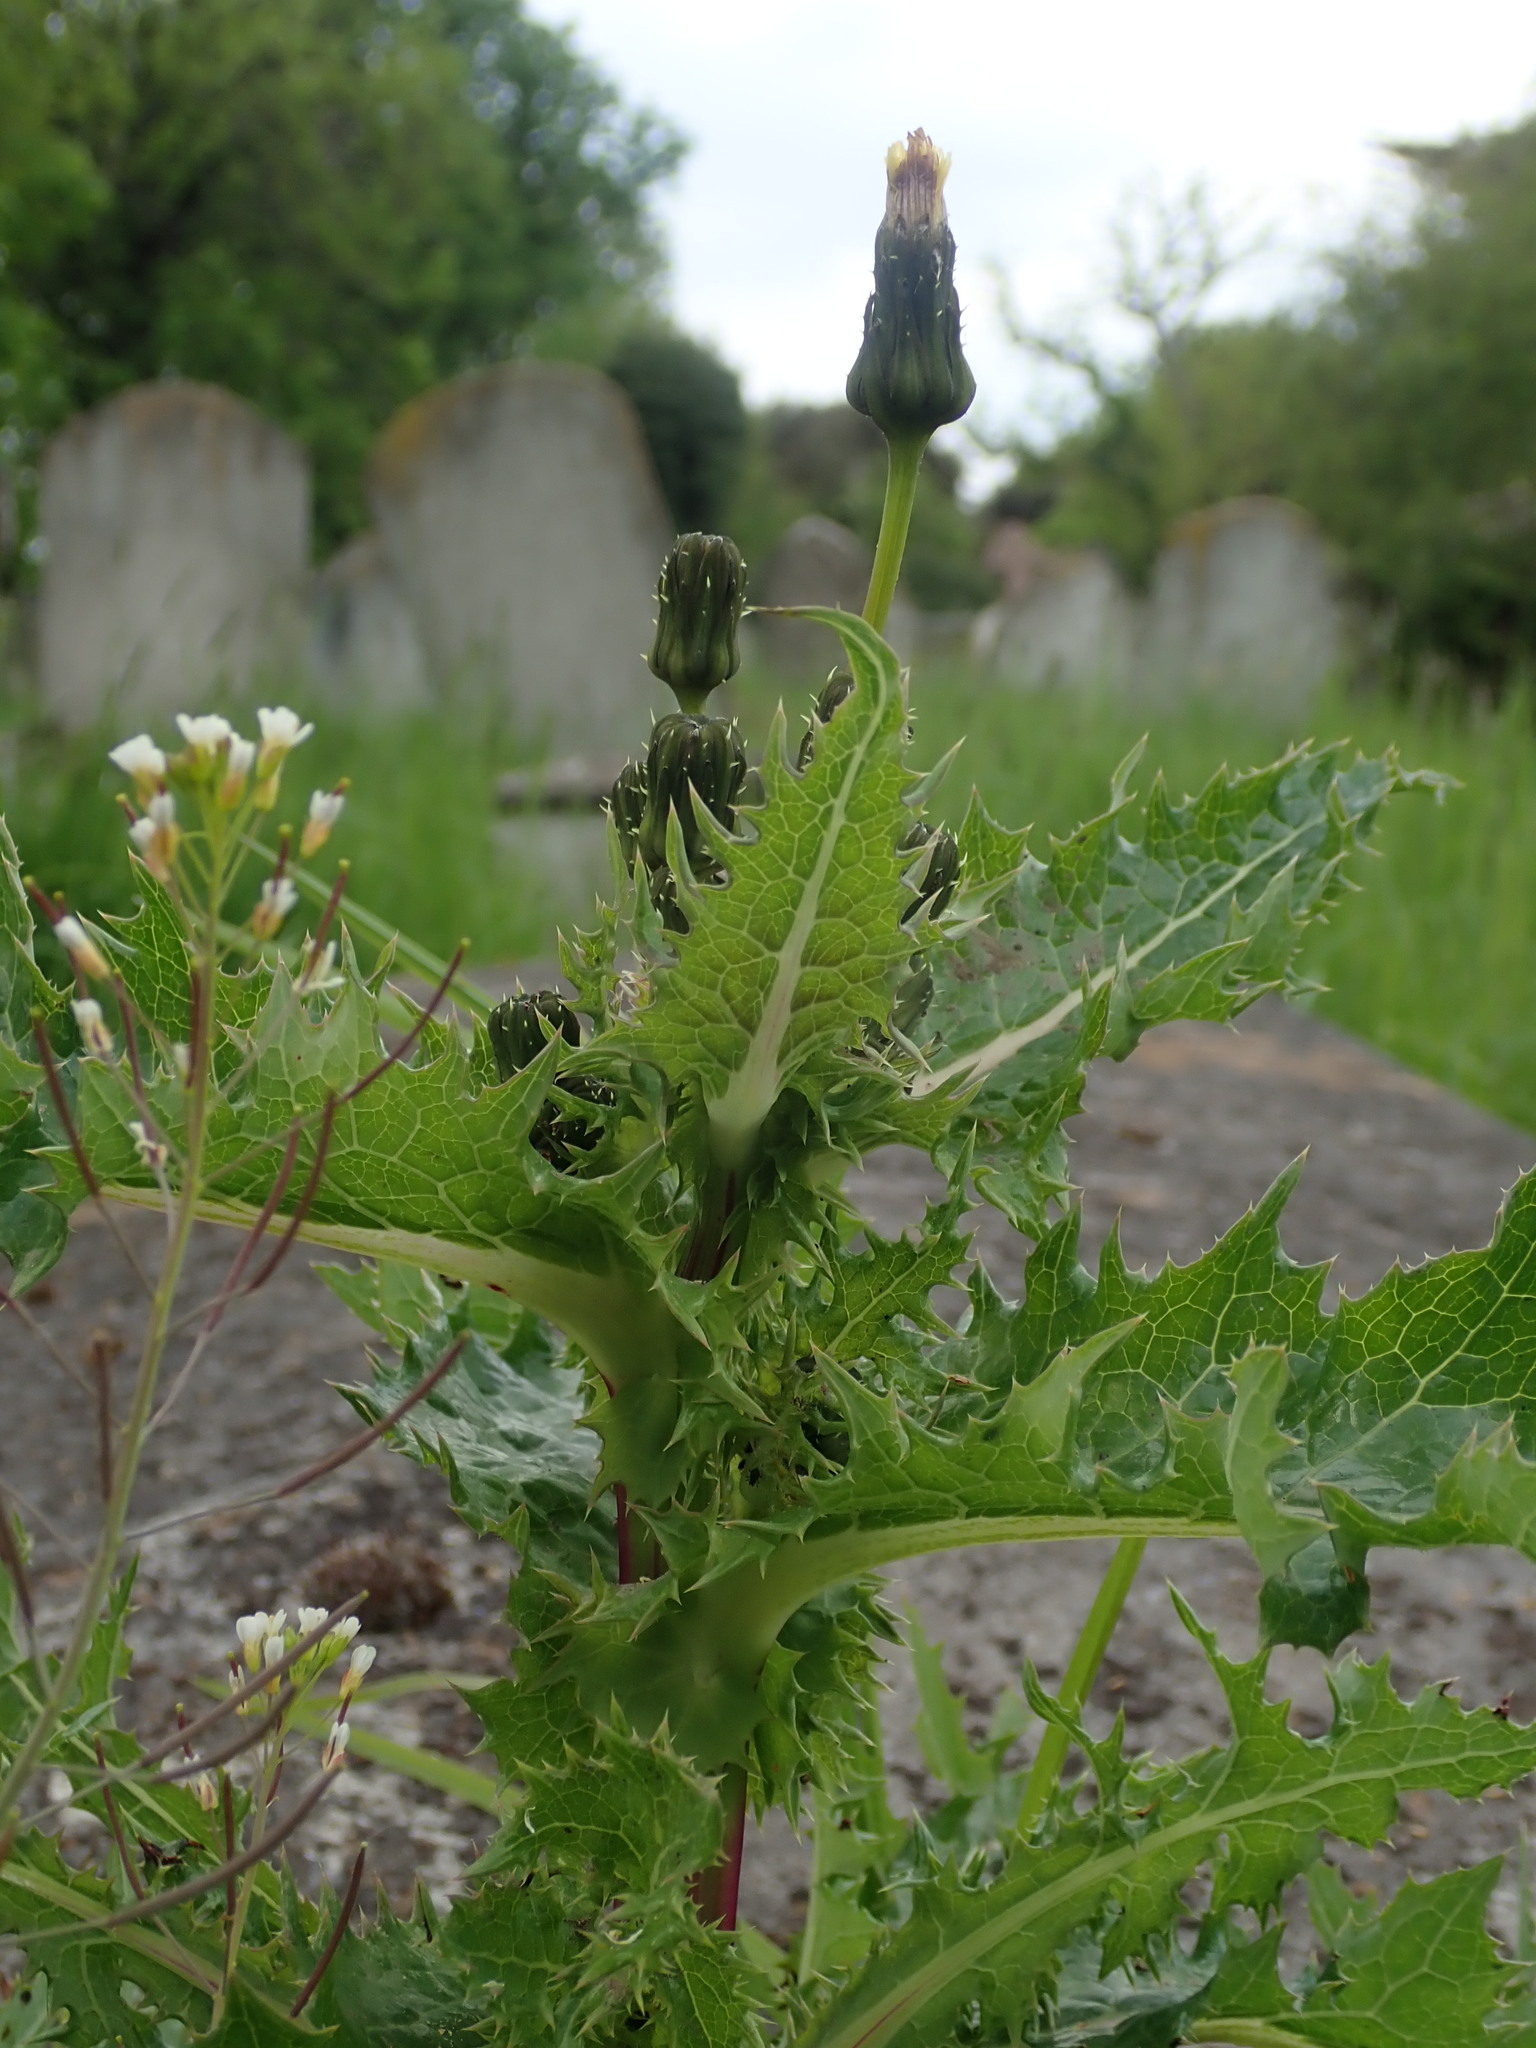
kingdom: Plantae
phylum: Tracheophyta
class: Magnoliopsida
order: Asterales
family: Asteraceae
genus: Sonchus
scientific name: Sonchus asper
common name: Prickly sow-thistle
